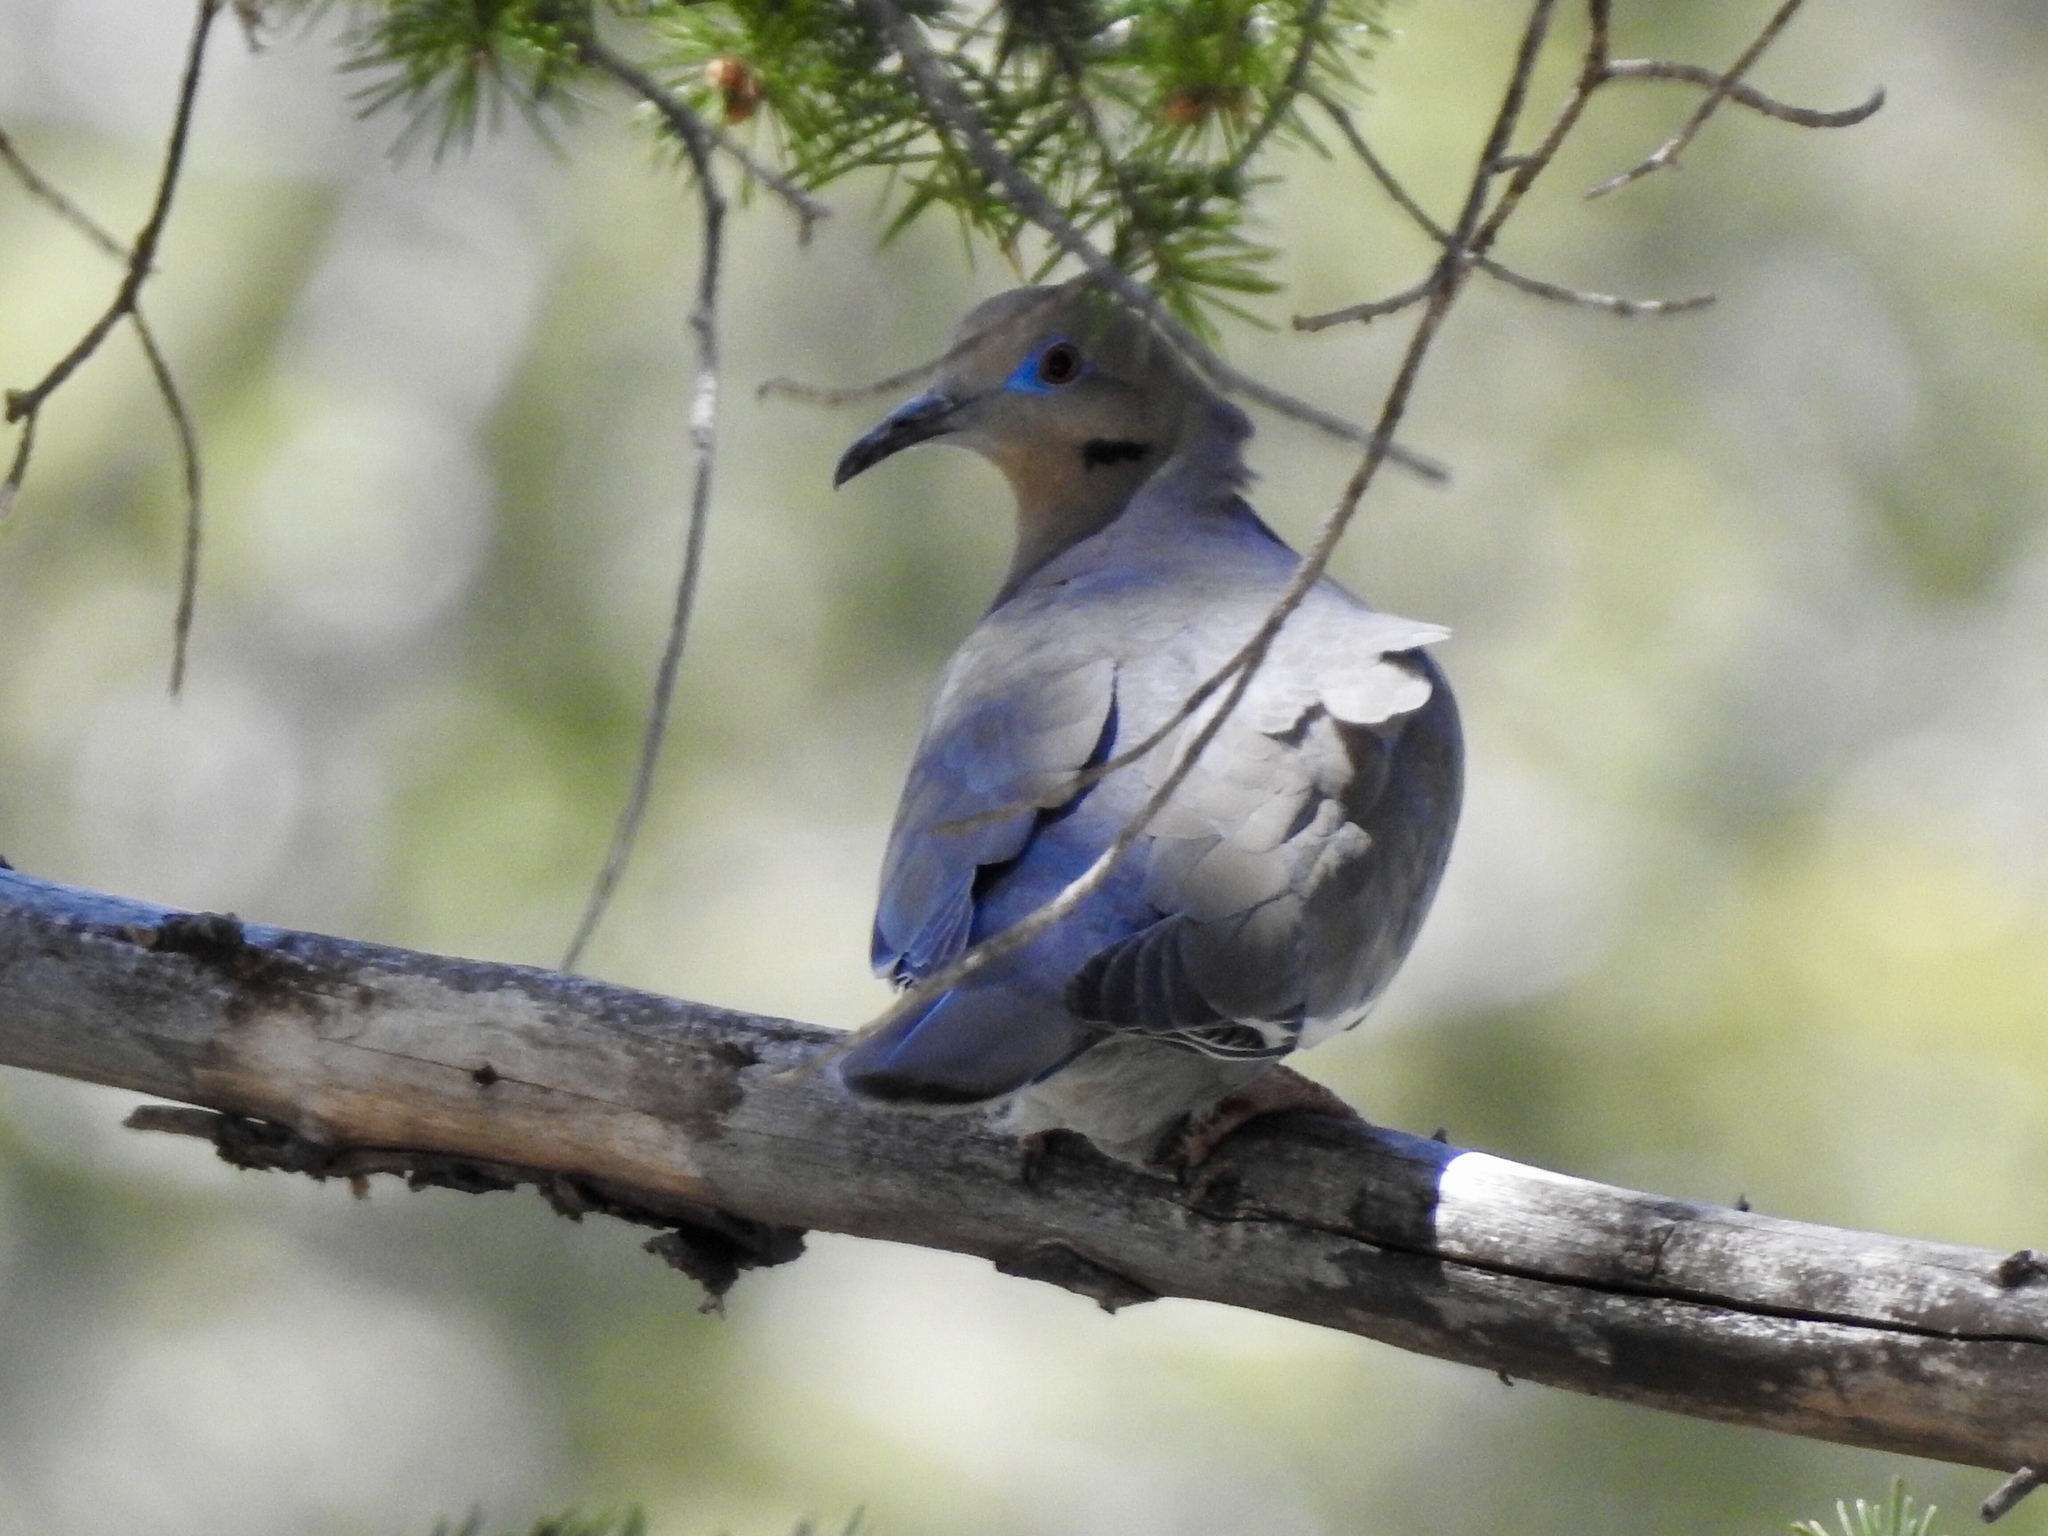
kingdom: Animalia
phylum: Chordata
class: Aves
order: Columbiformes
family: Columbidae
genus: Zenaida
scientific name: Zenaida asiatica
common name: White-winged dove
